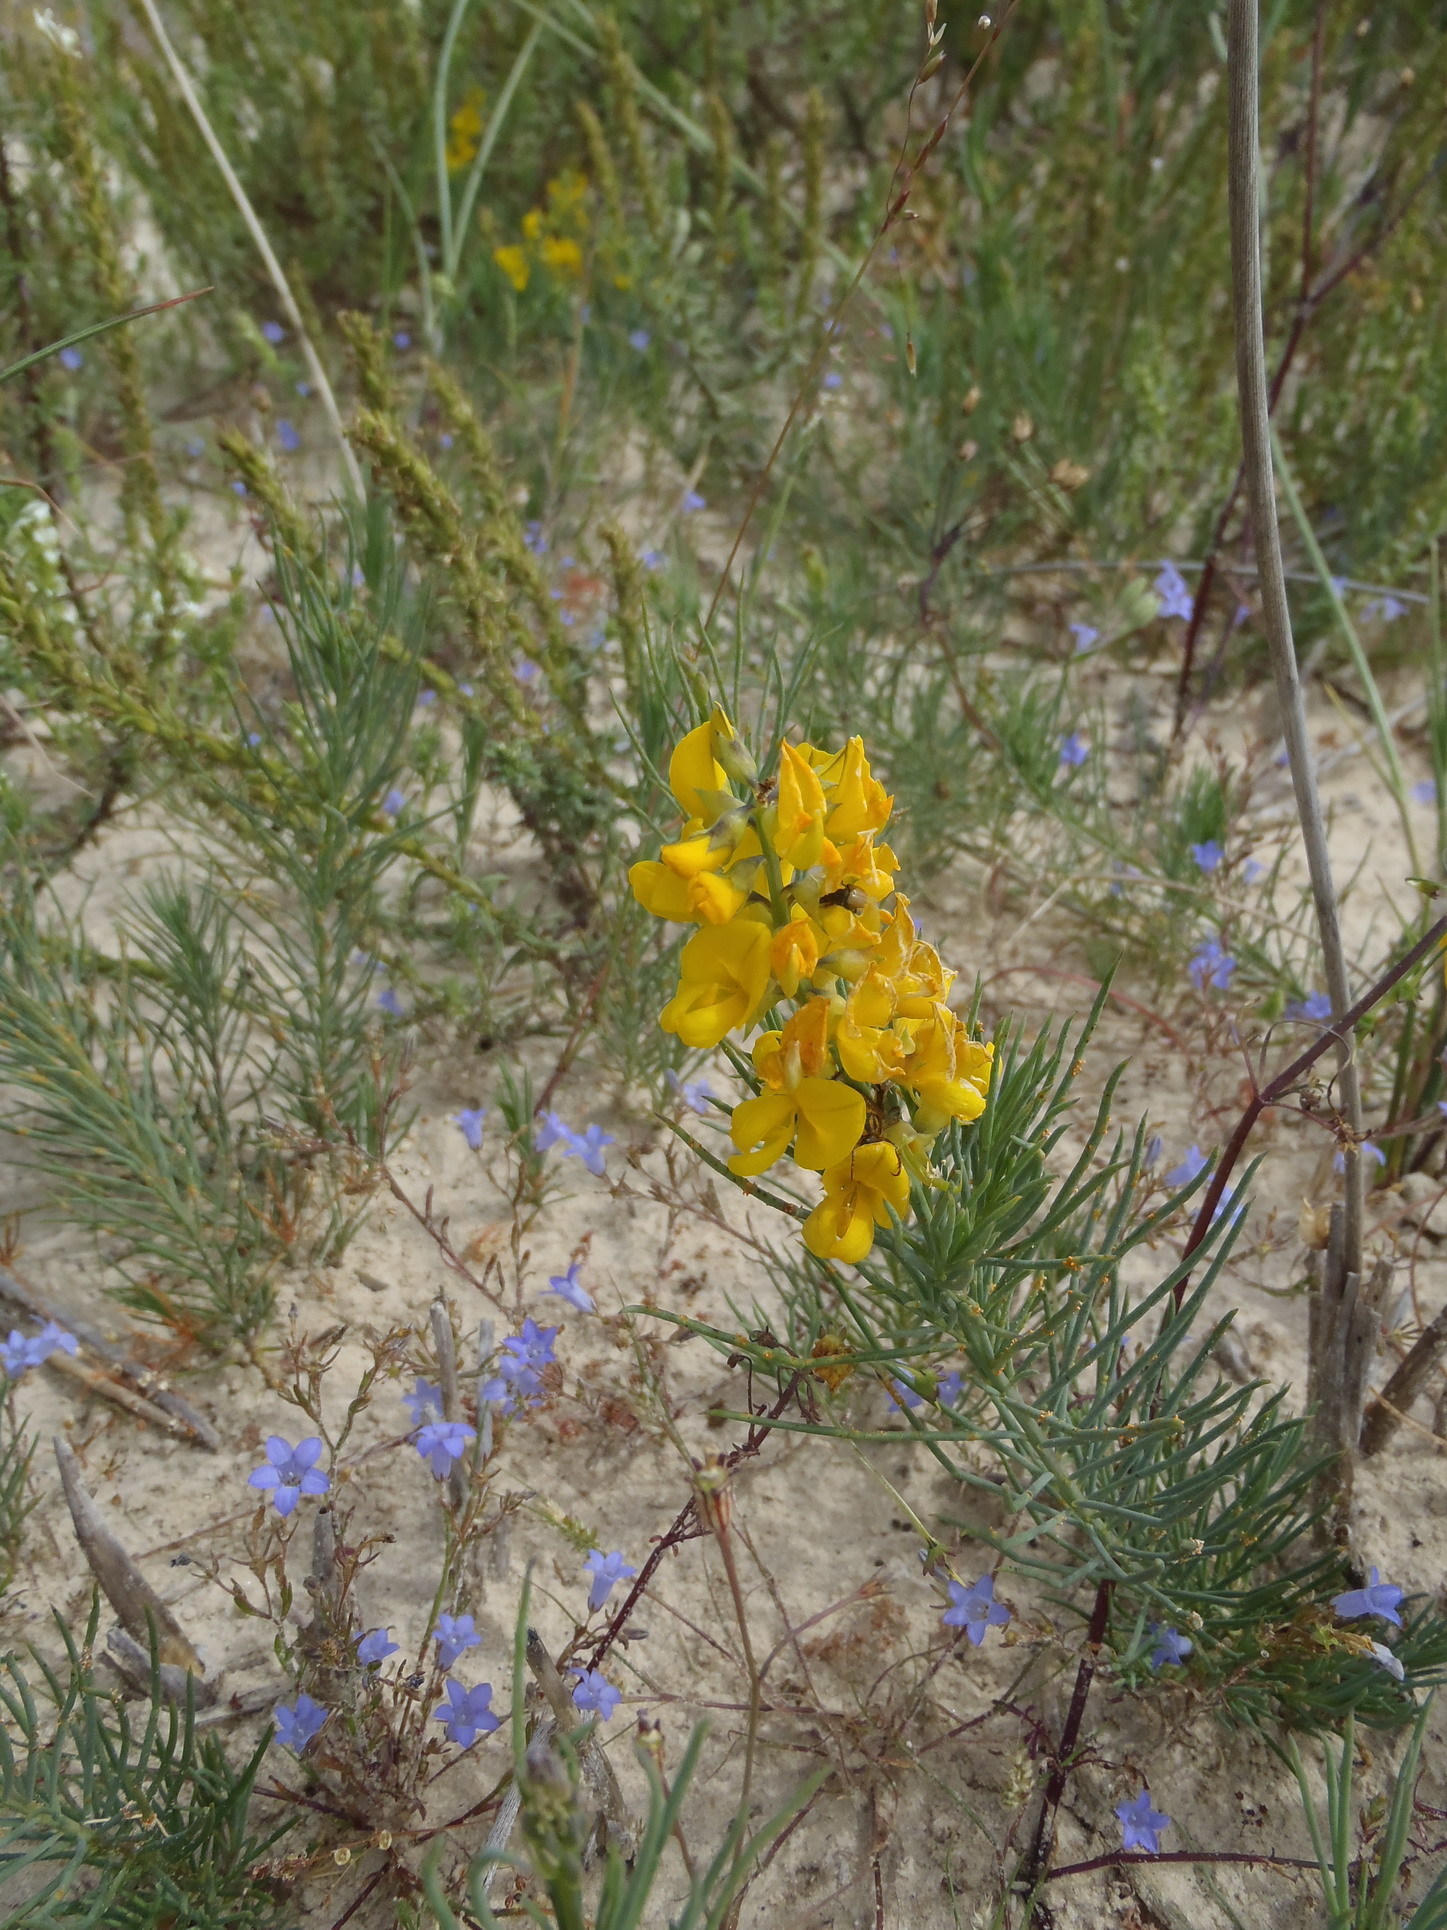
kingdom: Plantae
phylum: Tracheophyta
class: Magnoliopsida
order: Fabales
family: Fabaceae
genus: Lebeckia
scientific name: Lebeckia ambigua
